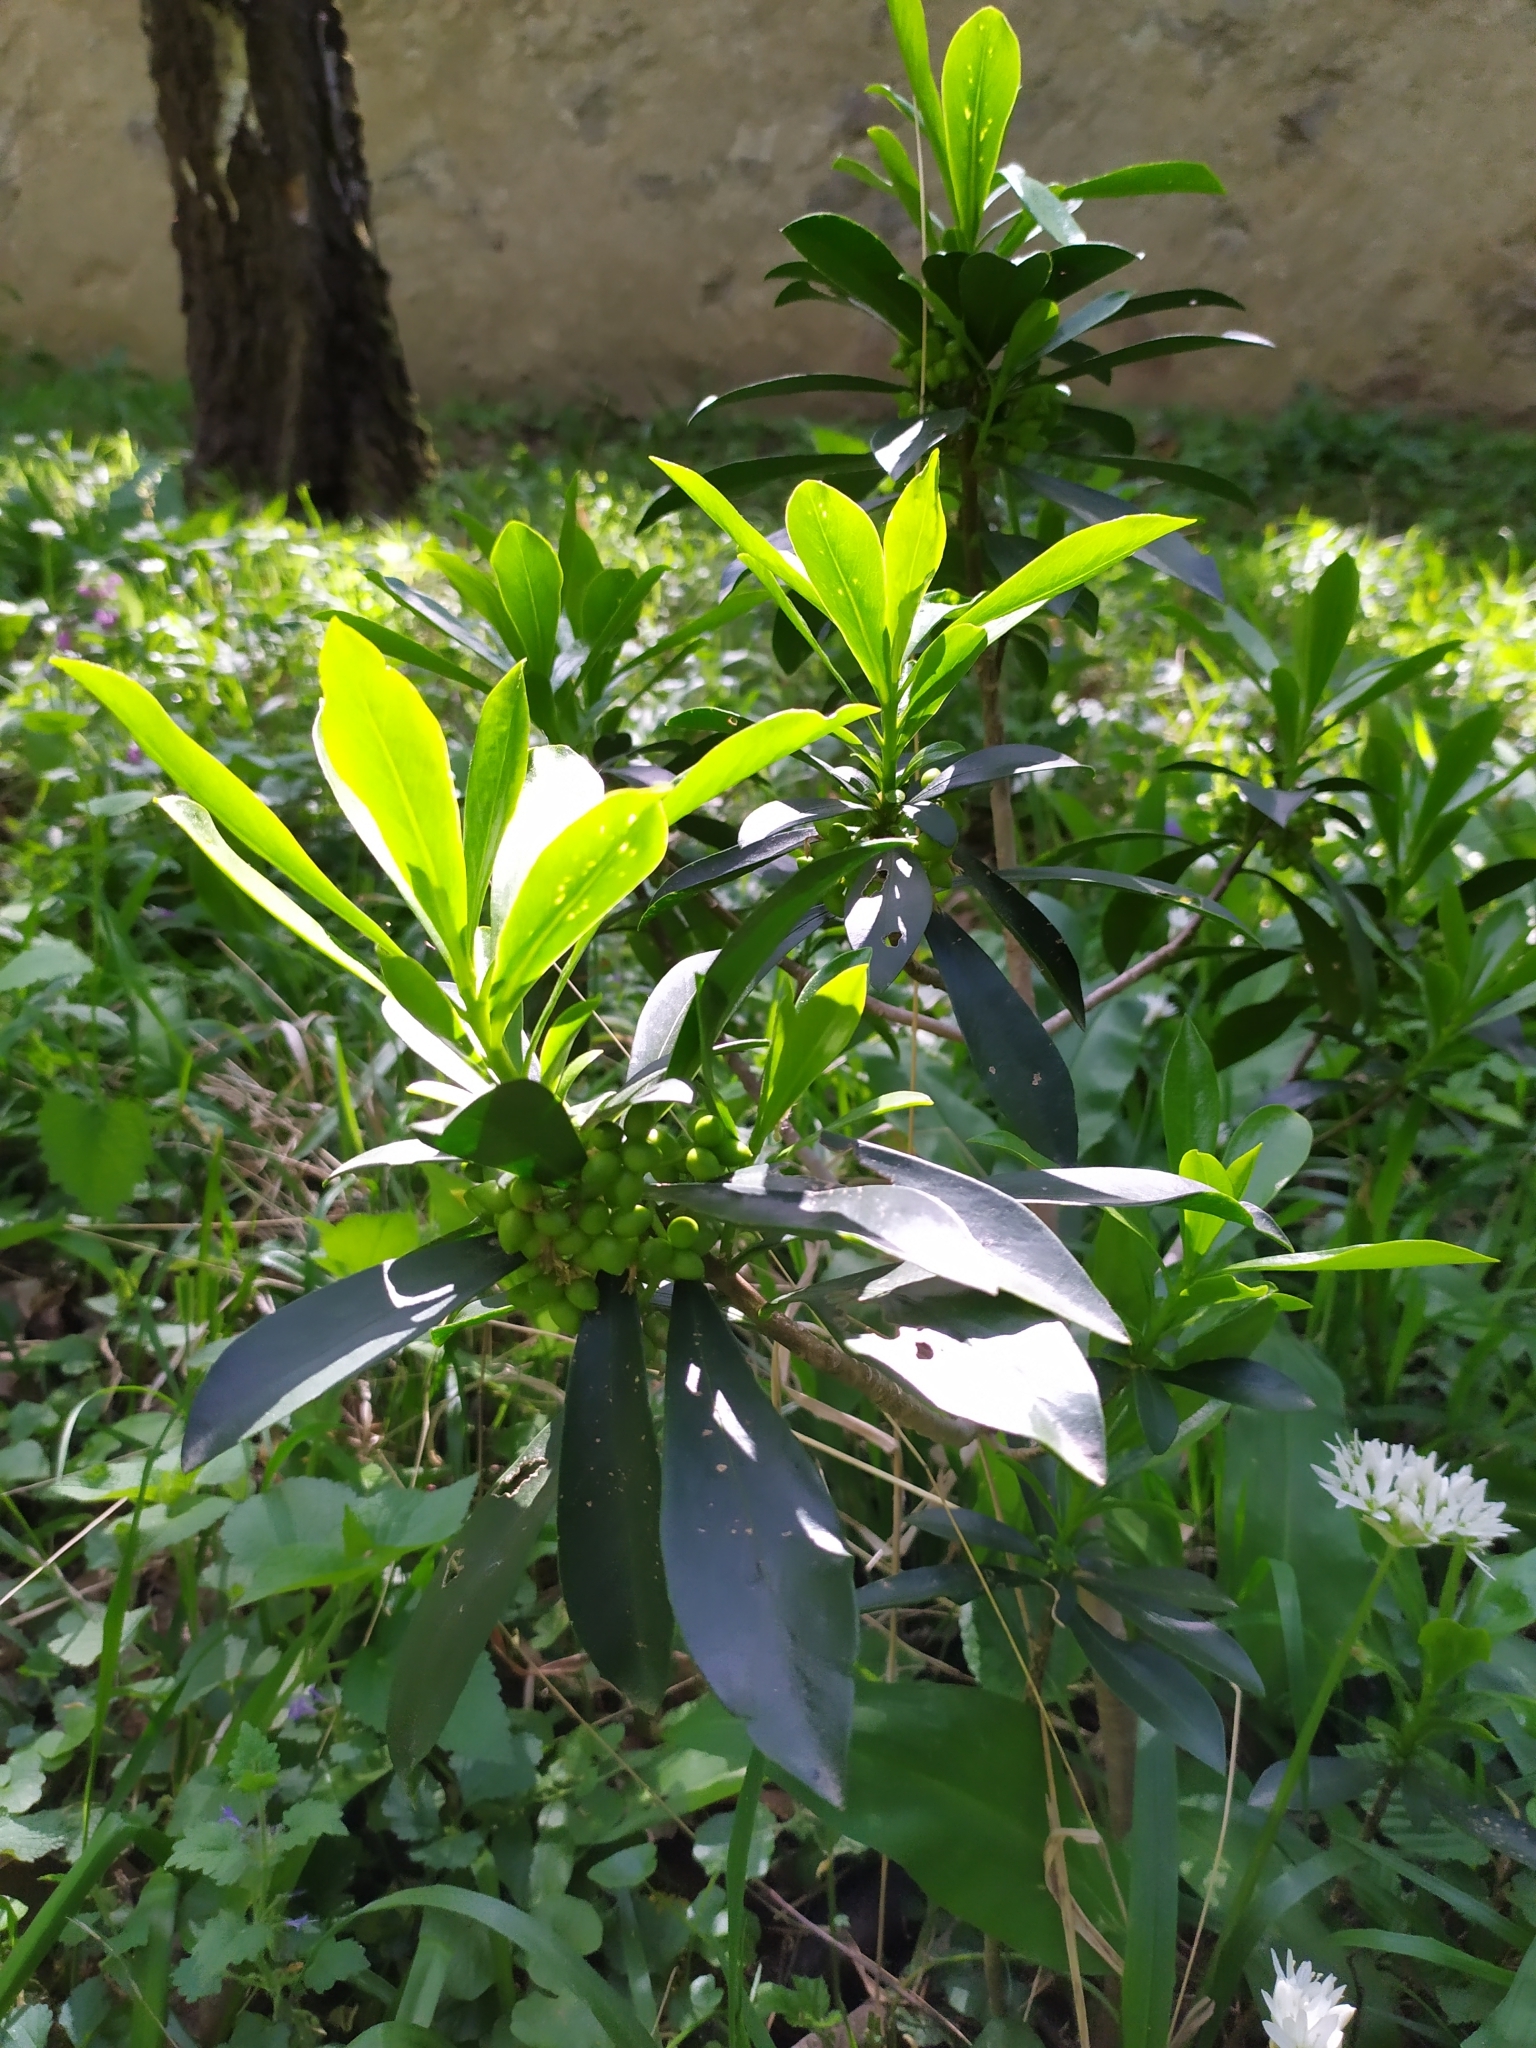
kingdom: Plantae
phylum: Tracheophyta
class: Magnoliopsida
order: Malvales
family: Thymelaeaceae
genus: Daphne
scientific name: Daphne laureola
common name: Spurge-laurel
